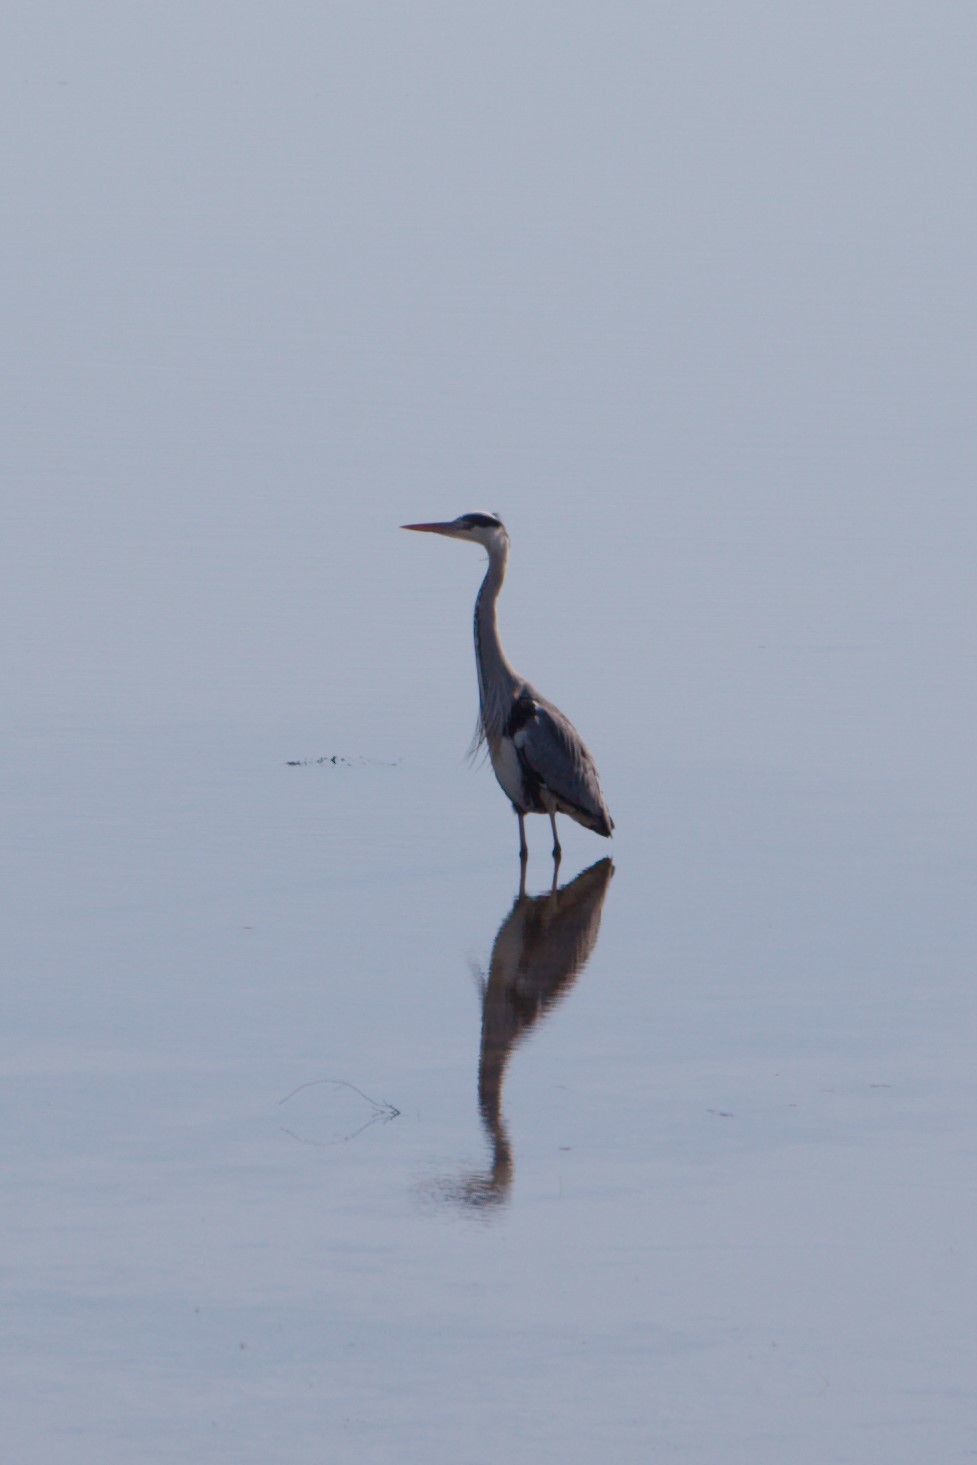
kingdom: Animalia
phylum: Chordata
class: Aves
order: Pelecaniformes
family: Ardeidae
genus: Ardea
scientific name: Ardea cinerea
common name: Grey heron
